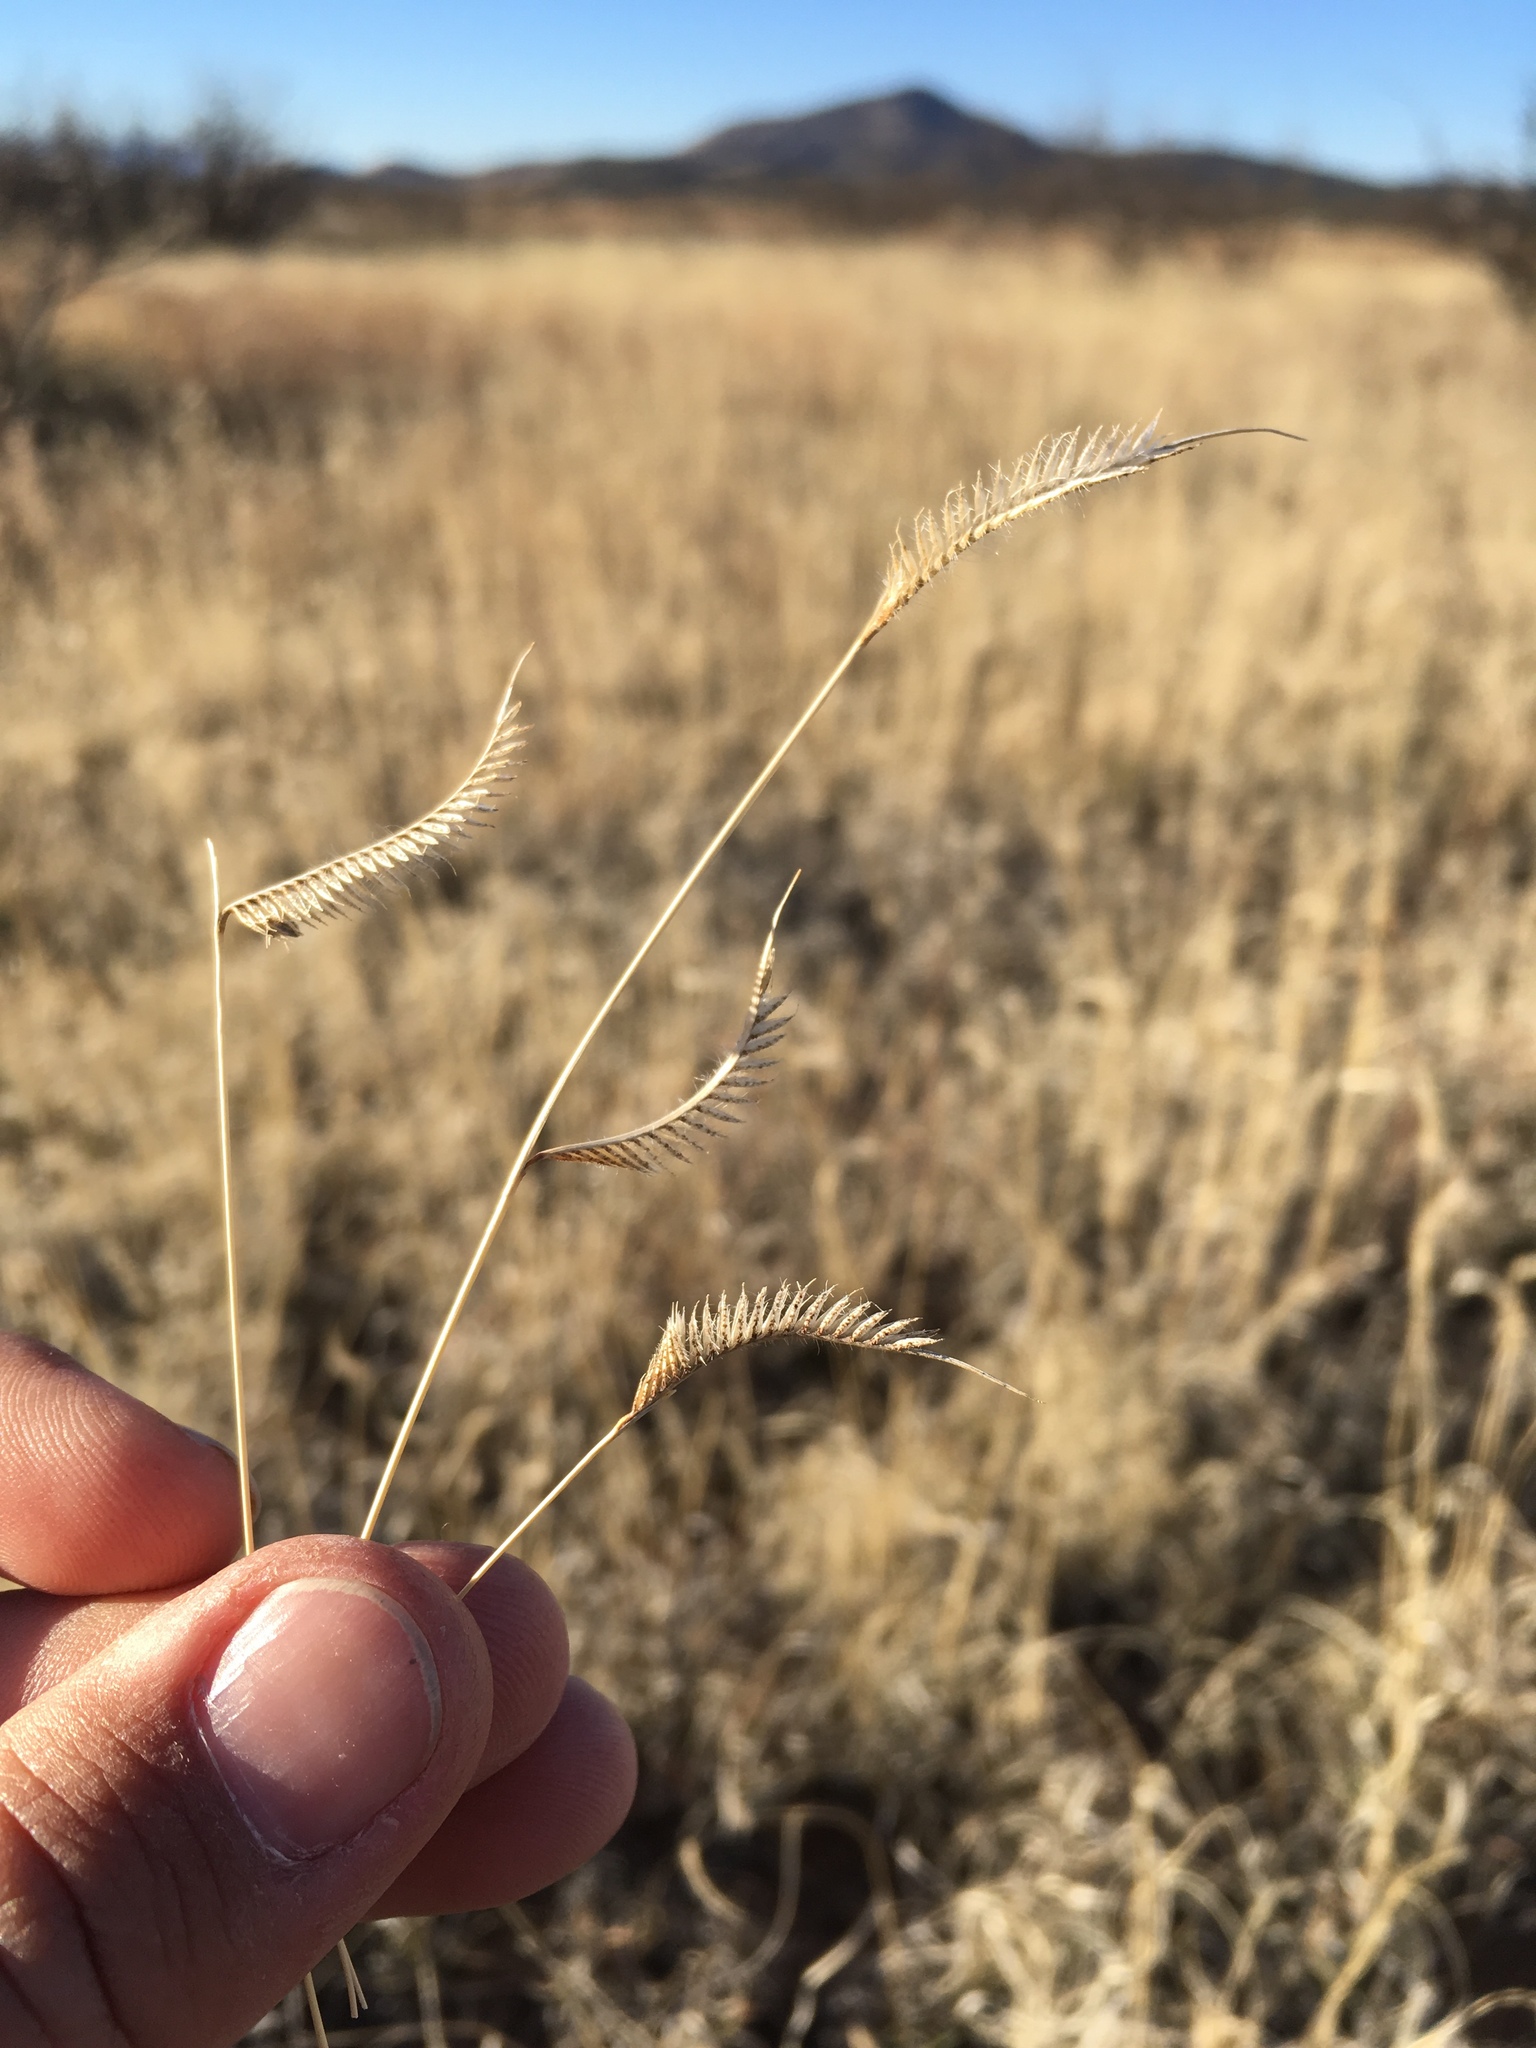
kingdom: Plantae
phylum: Tracheophyta
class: Liliopsida
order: Poales
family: Poaceae
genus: Bouteloua
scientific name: Bouteloua hirsuta
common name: Hairy grama
